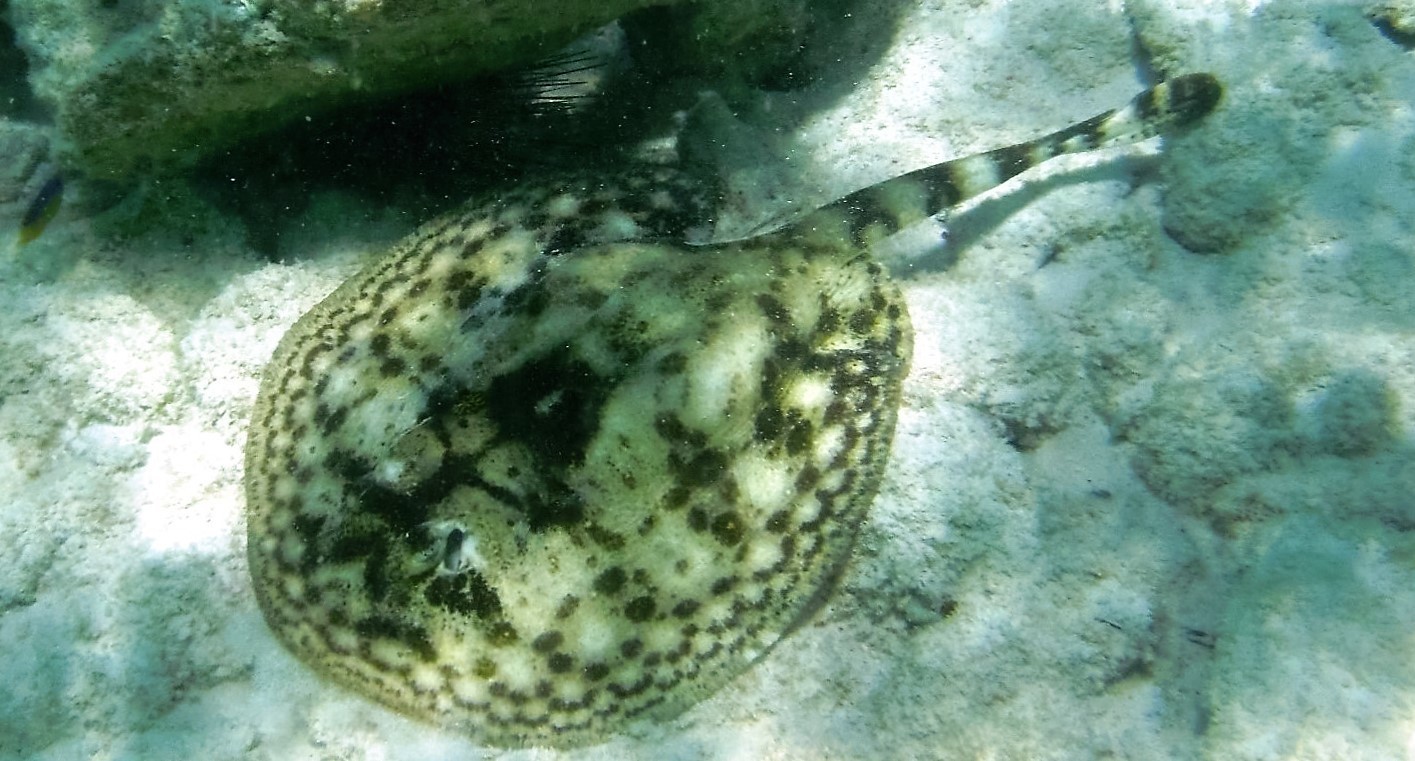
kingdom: Animalia
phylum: Chordata
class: Elasmobranchii
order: Myliobatiformes
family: Urotrygonidae
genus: Urobatis
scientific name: Urobatis jamaicensis
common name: Yellow stingray
